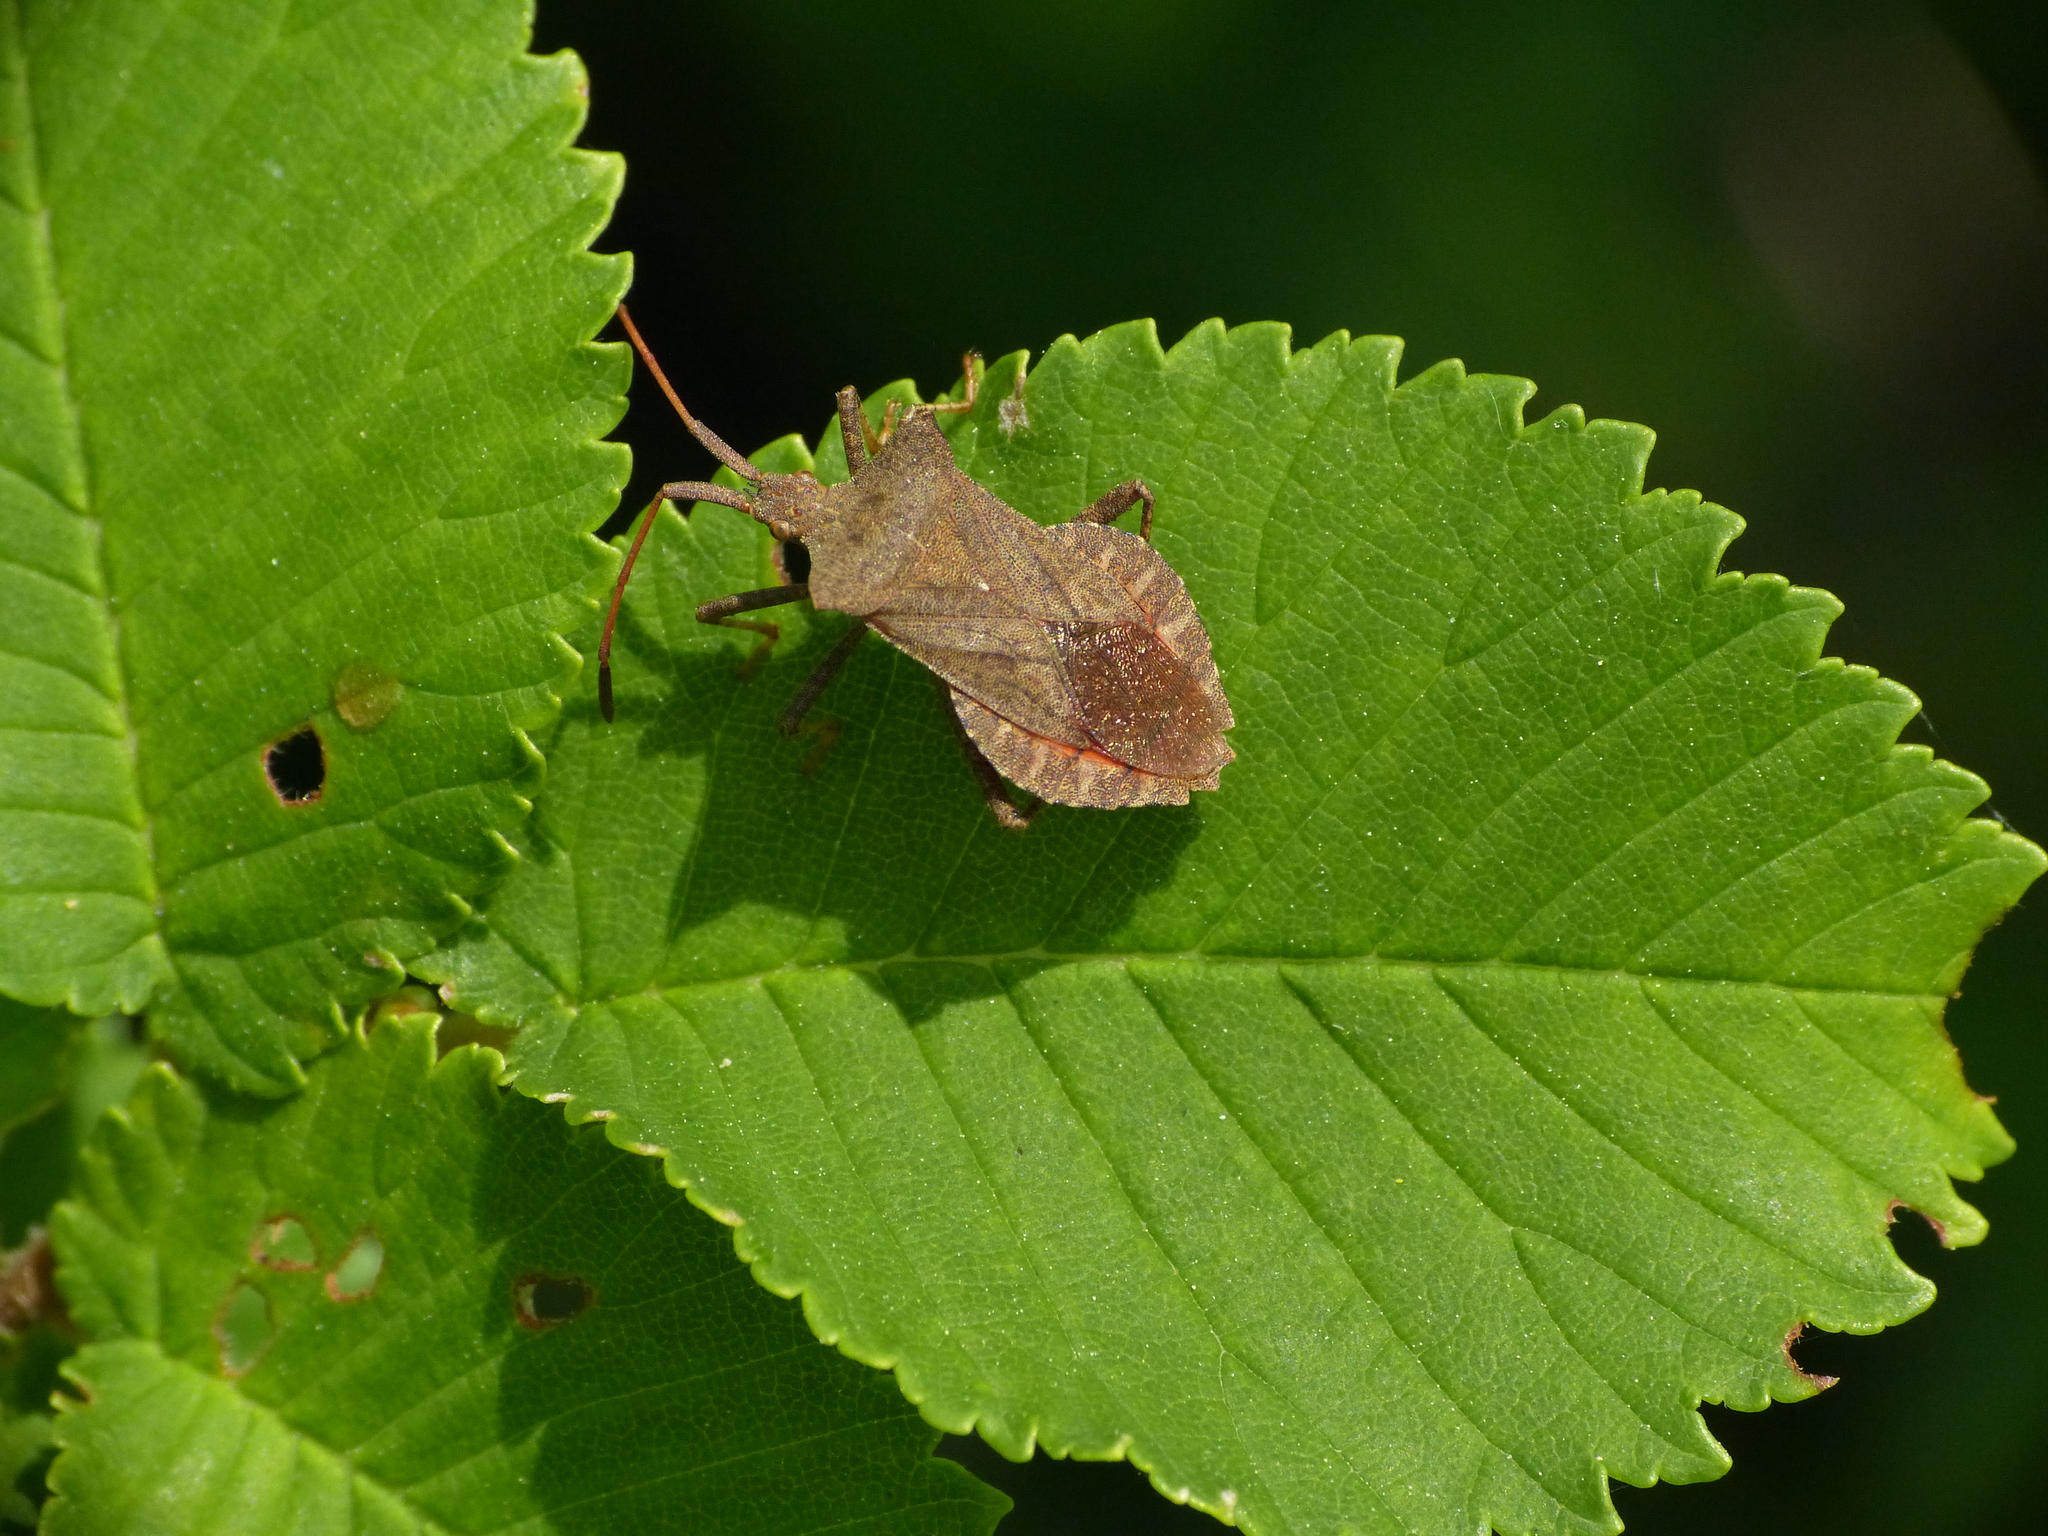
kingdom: Animalia
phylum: Arthropoda
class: Insecta
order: Hemiptera
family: Coreidae
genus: Coreus
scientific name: Coreus marginatus
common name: Dock bug
